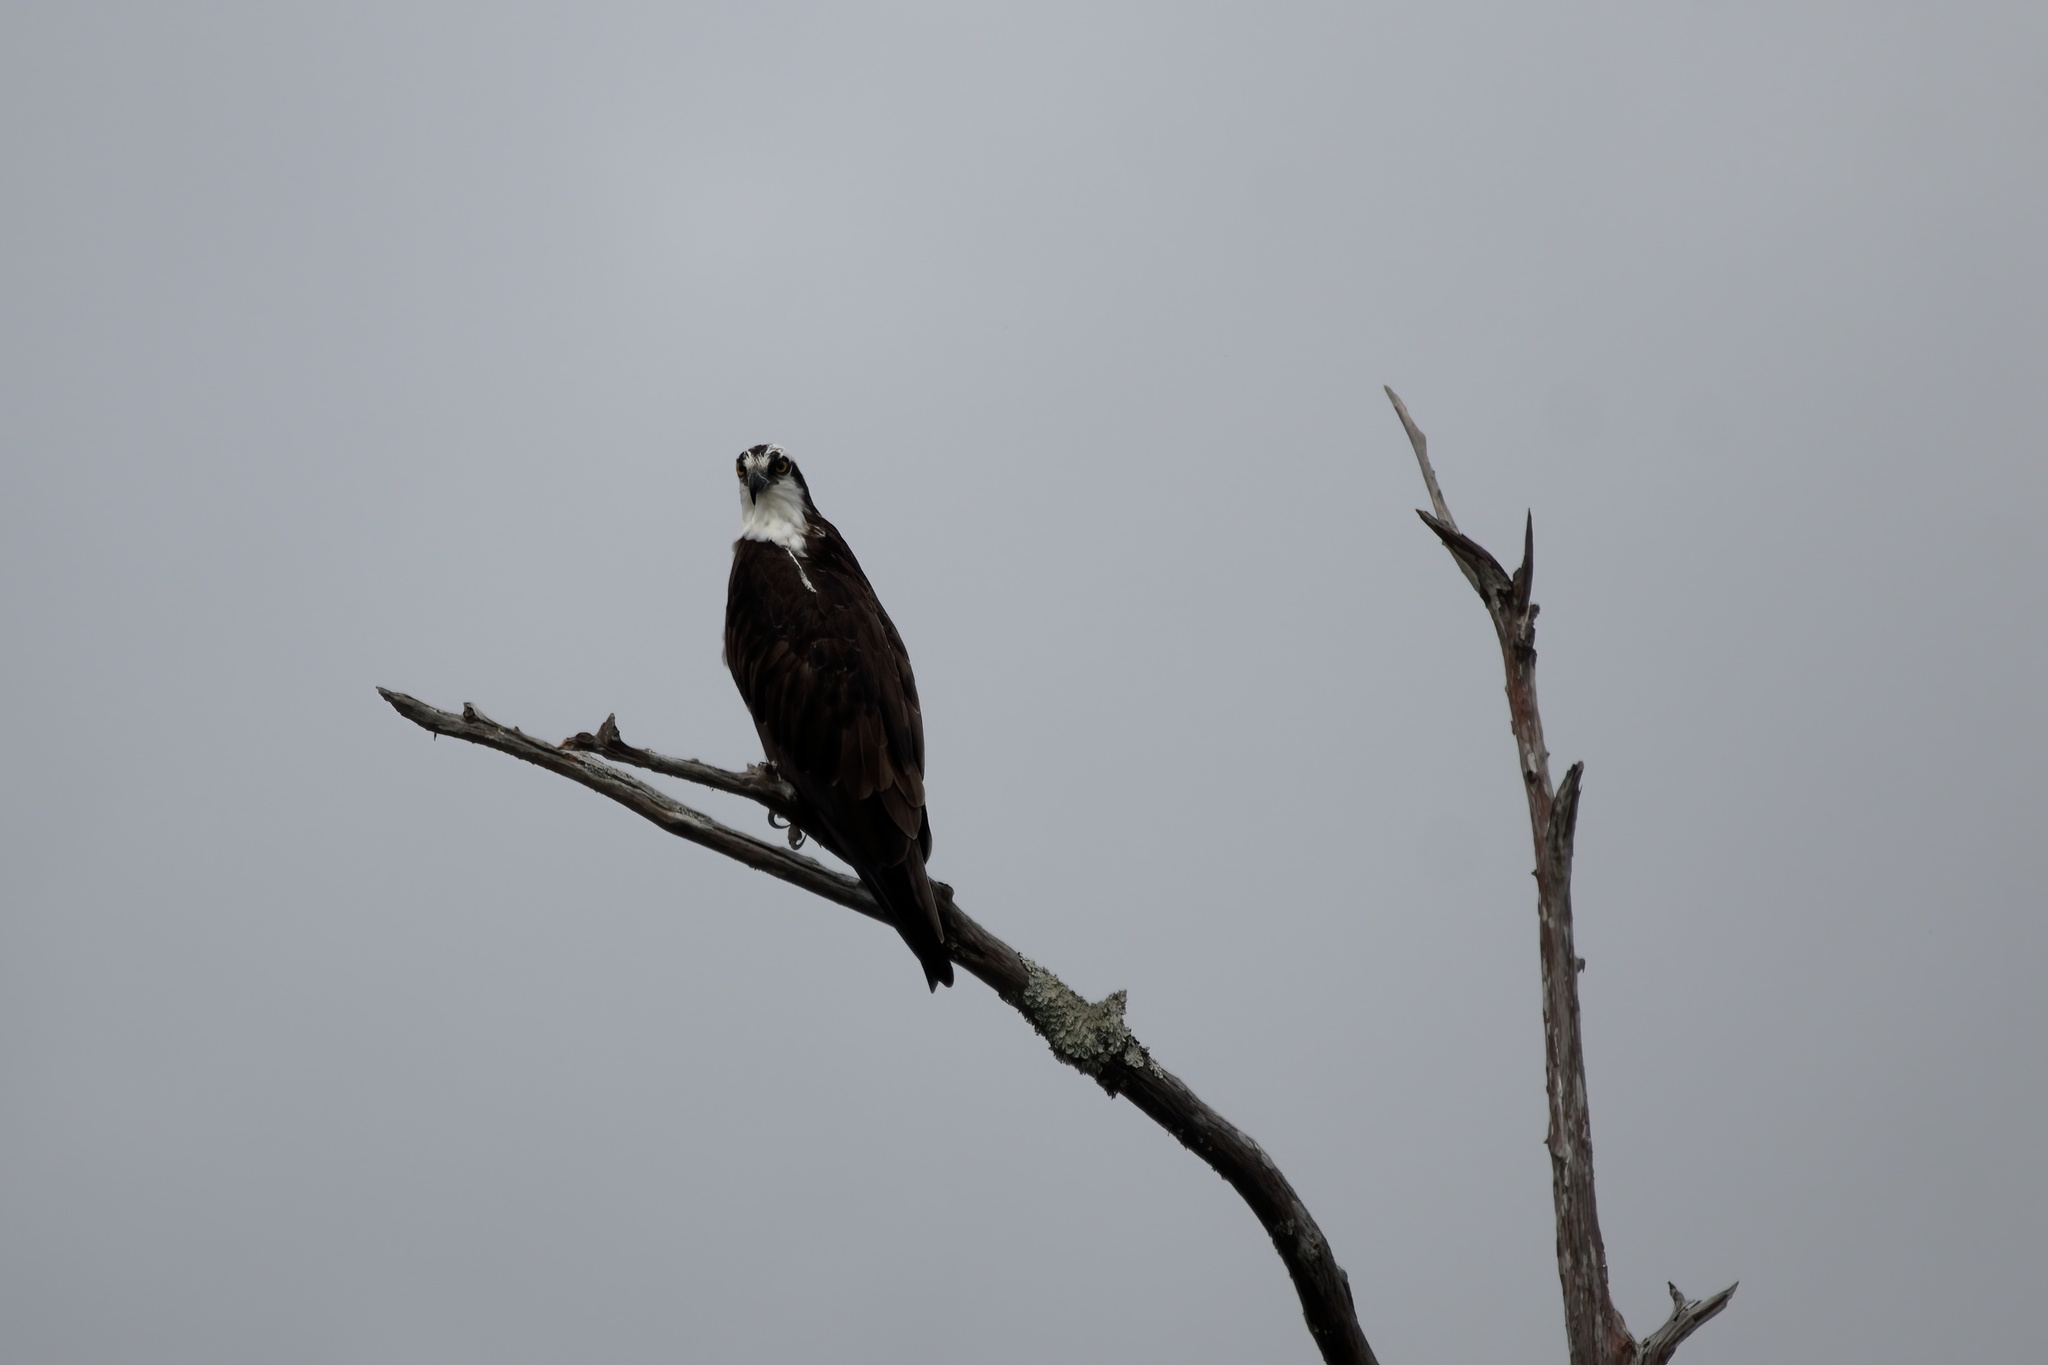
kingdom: Animalia
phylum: Chordata
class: Aves
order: Accipitriformes
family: Pandionidae
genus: Pandion
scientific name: Pandion haliaetus
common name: Osprey
